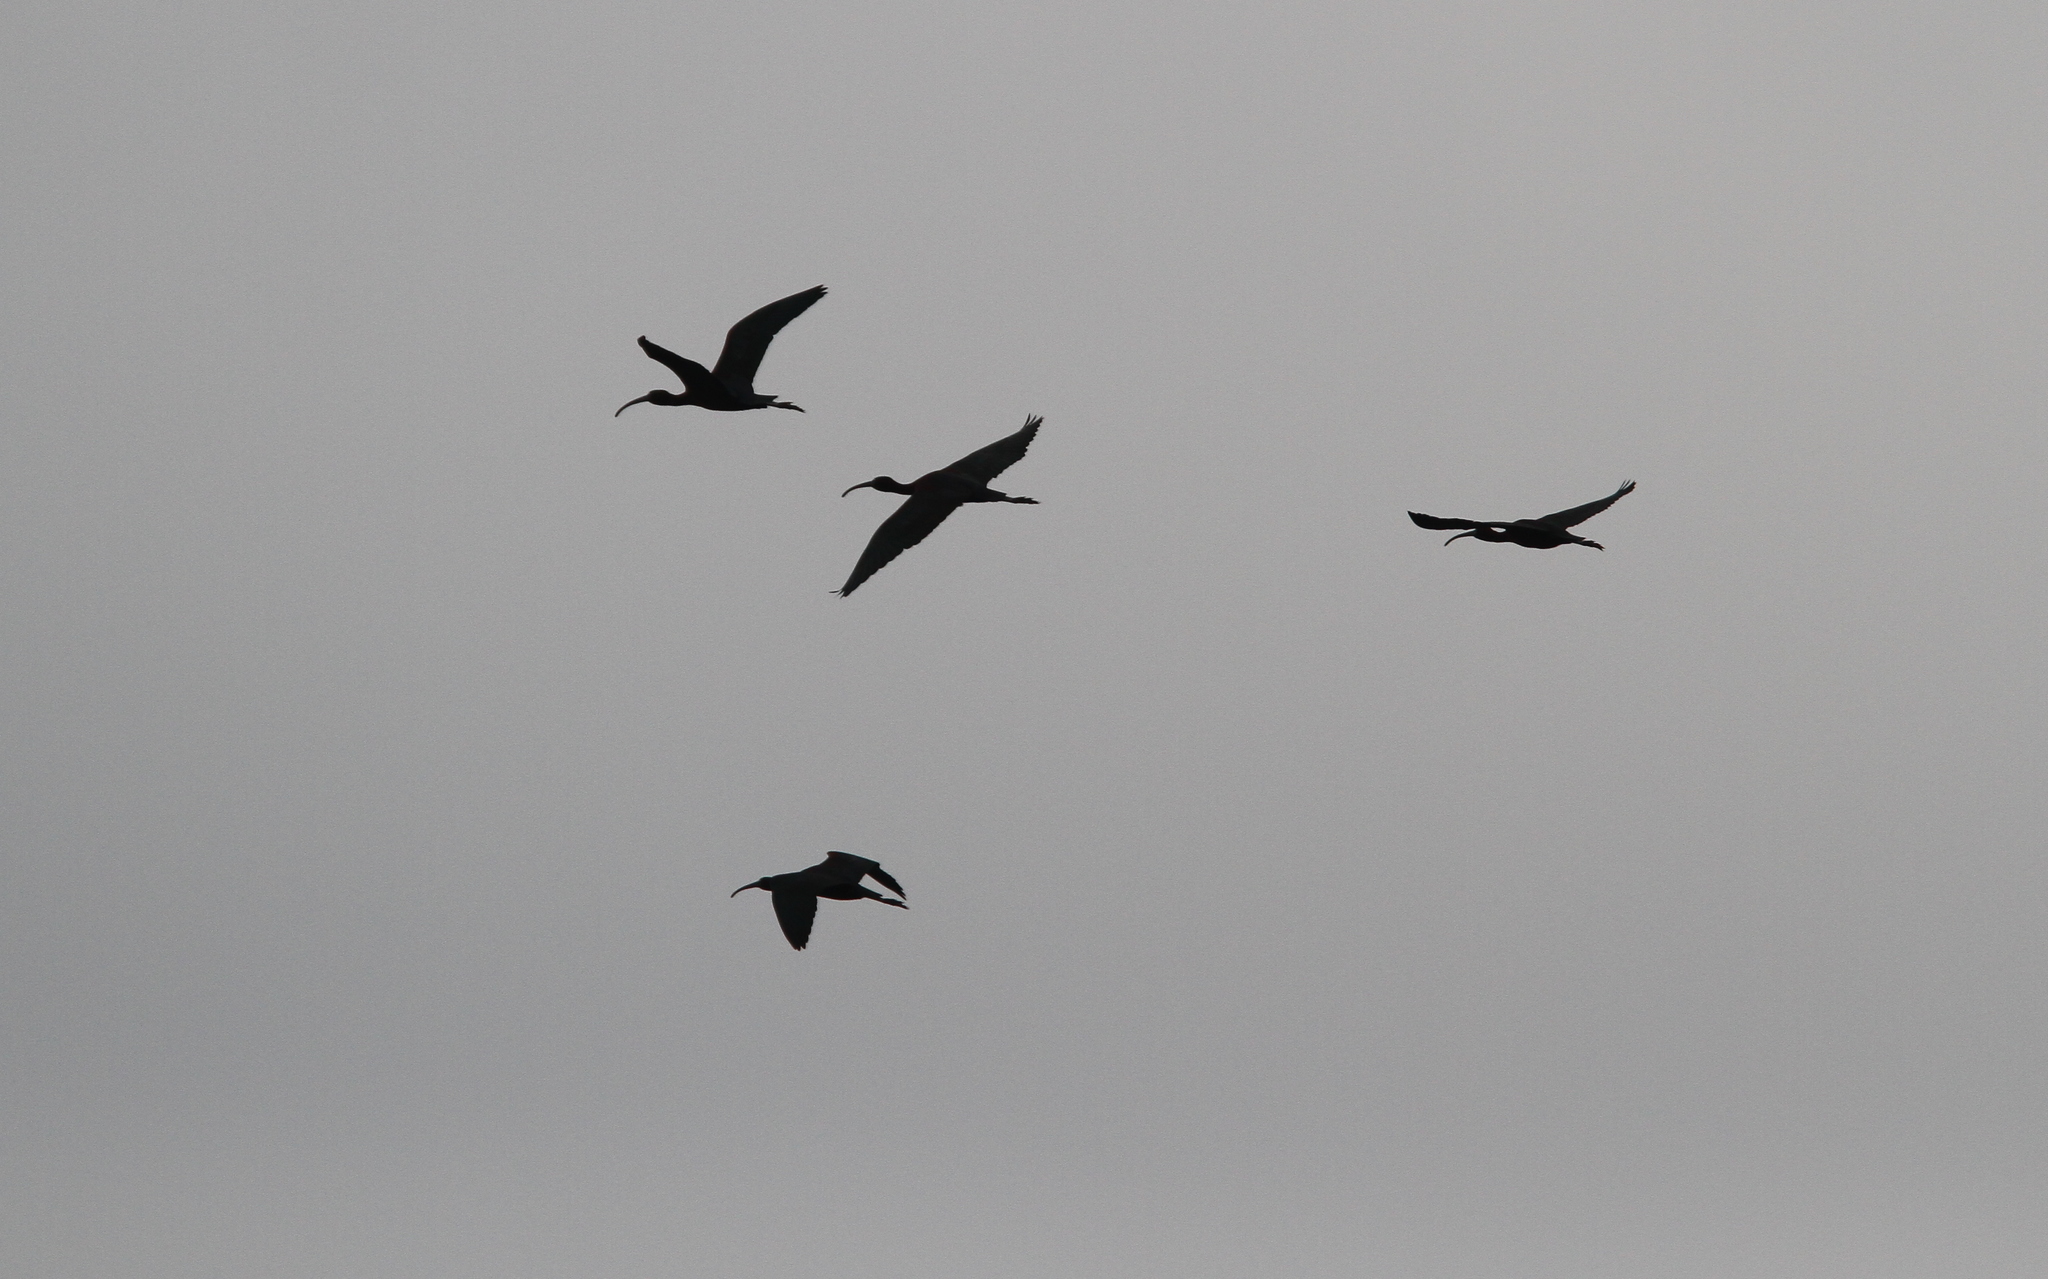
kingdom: Animalia
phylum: Chordata
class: Aves
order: Pelecaniformes
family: Threskiornithidae
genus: Plegadis
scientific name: Plegadis falcinellus
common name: Glossy ibis
